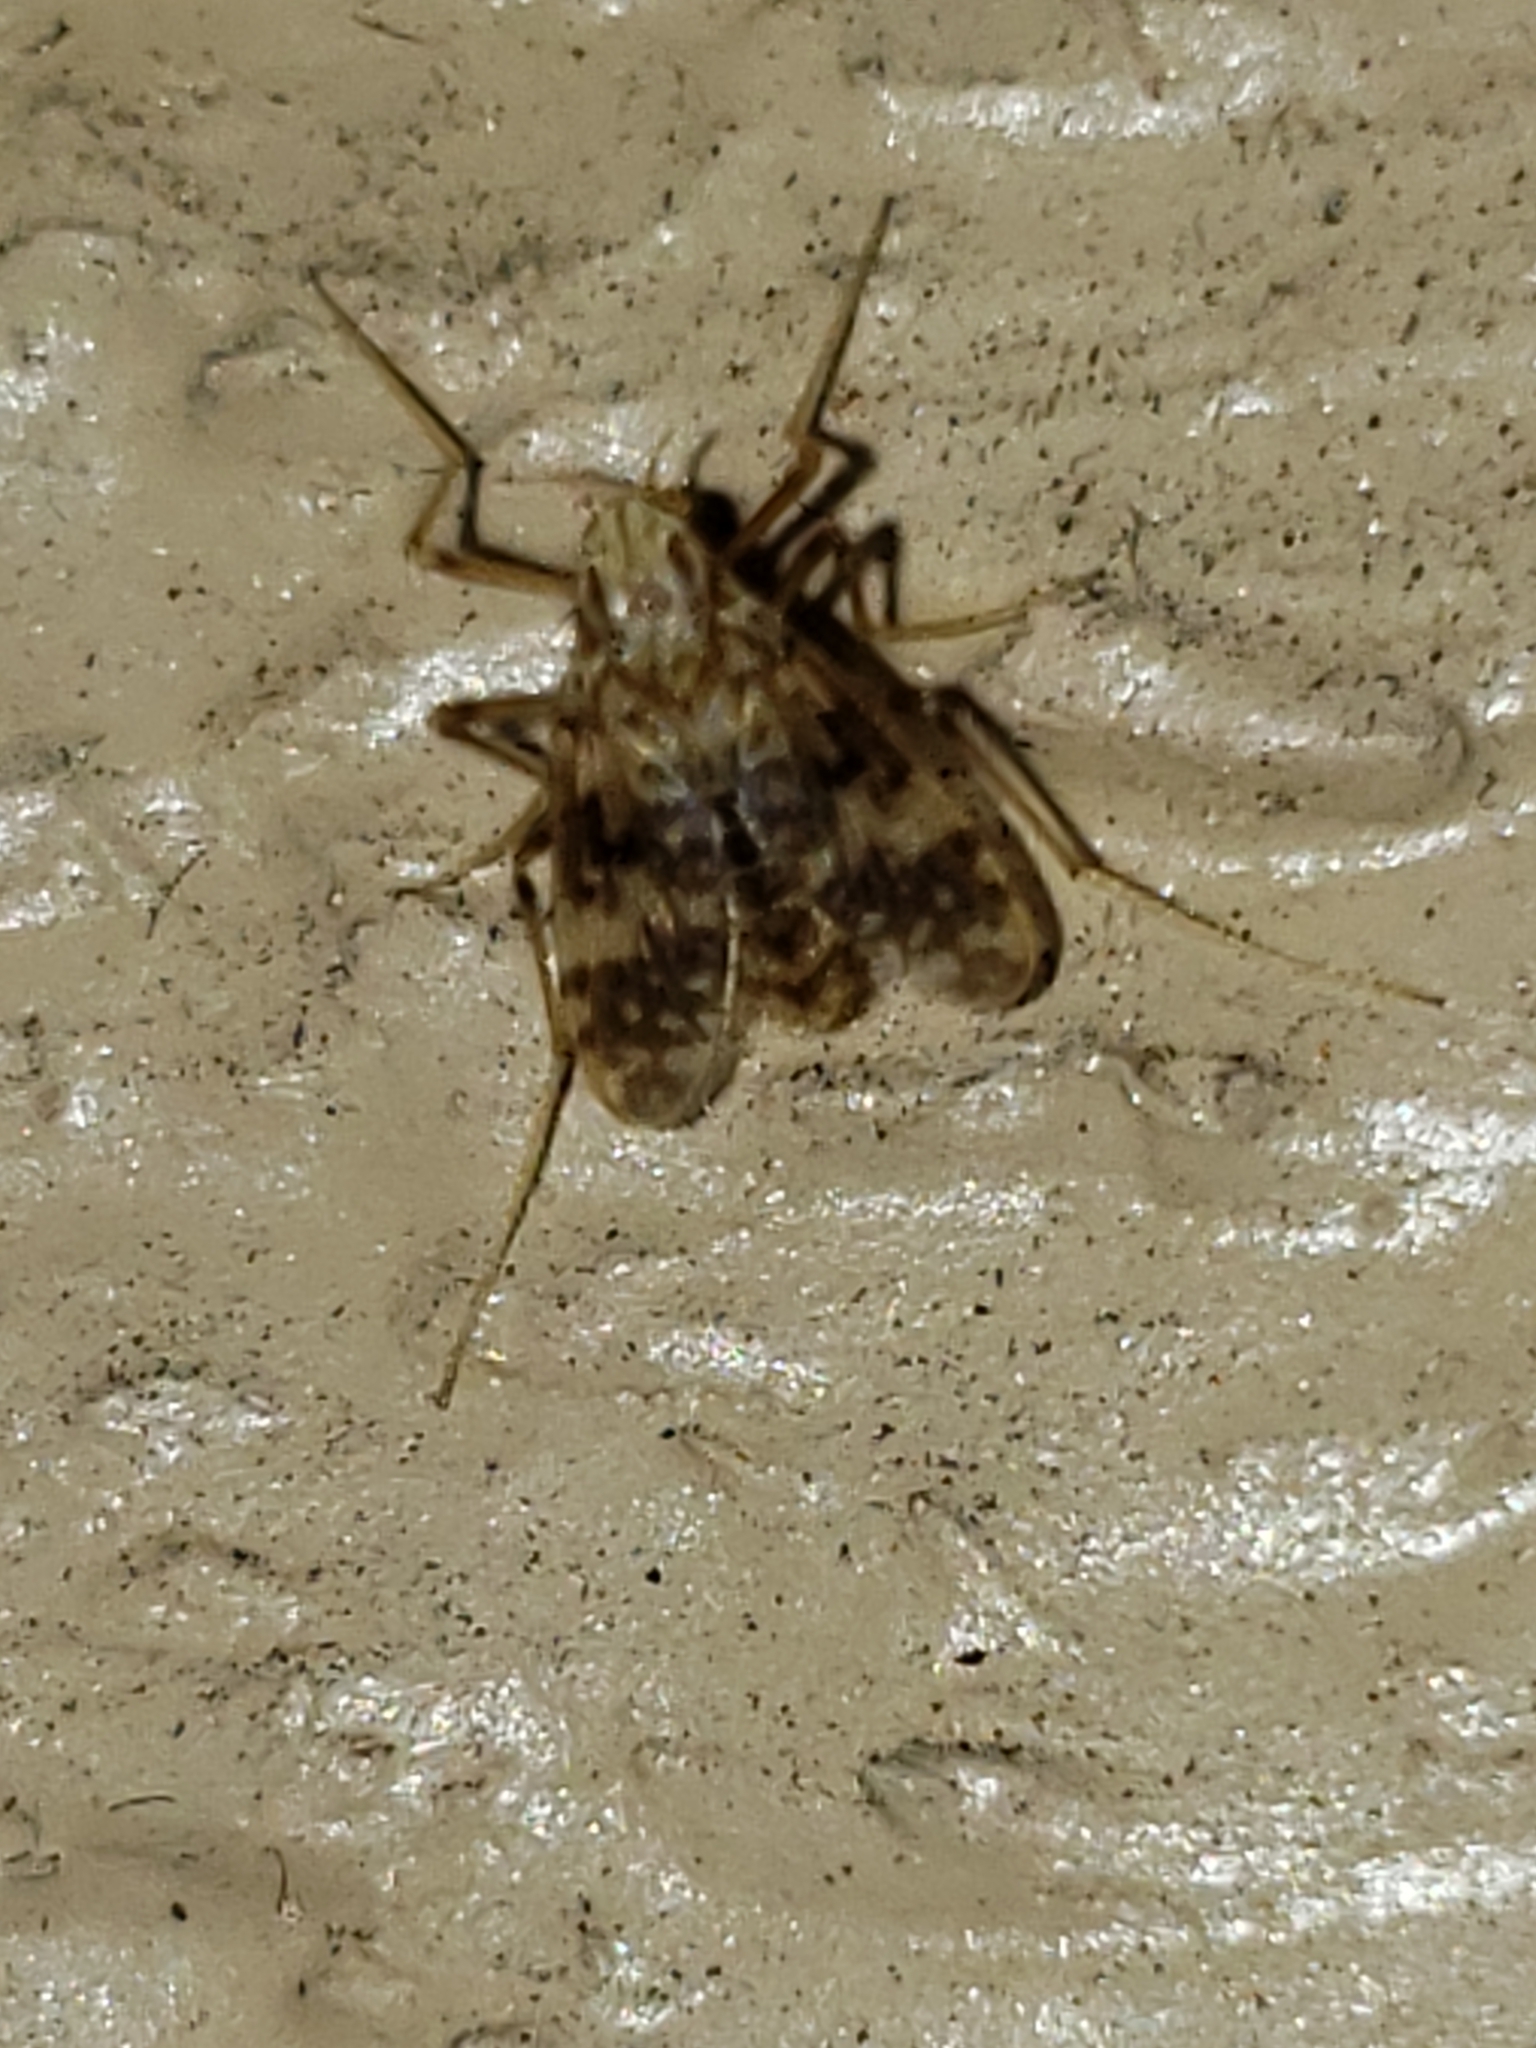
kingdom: Animalia
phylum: Arthropoda
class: Insecta
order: Diptera
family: Chironomidae
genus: Psectrotanypus
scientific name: Psectrotanypus dyari
